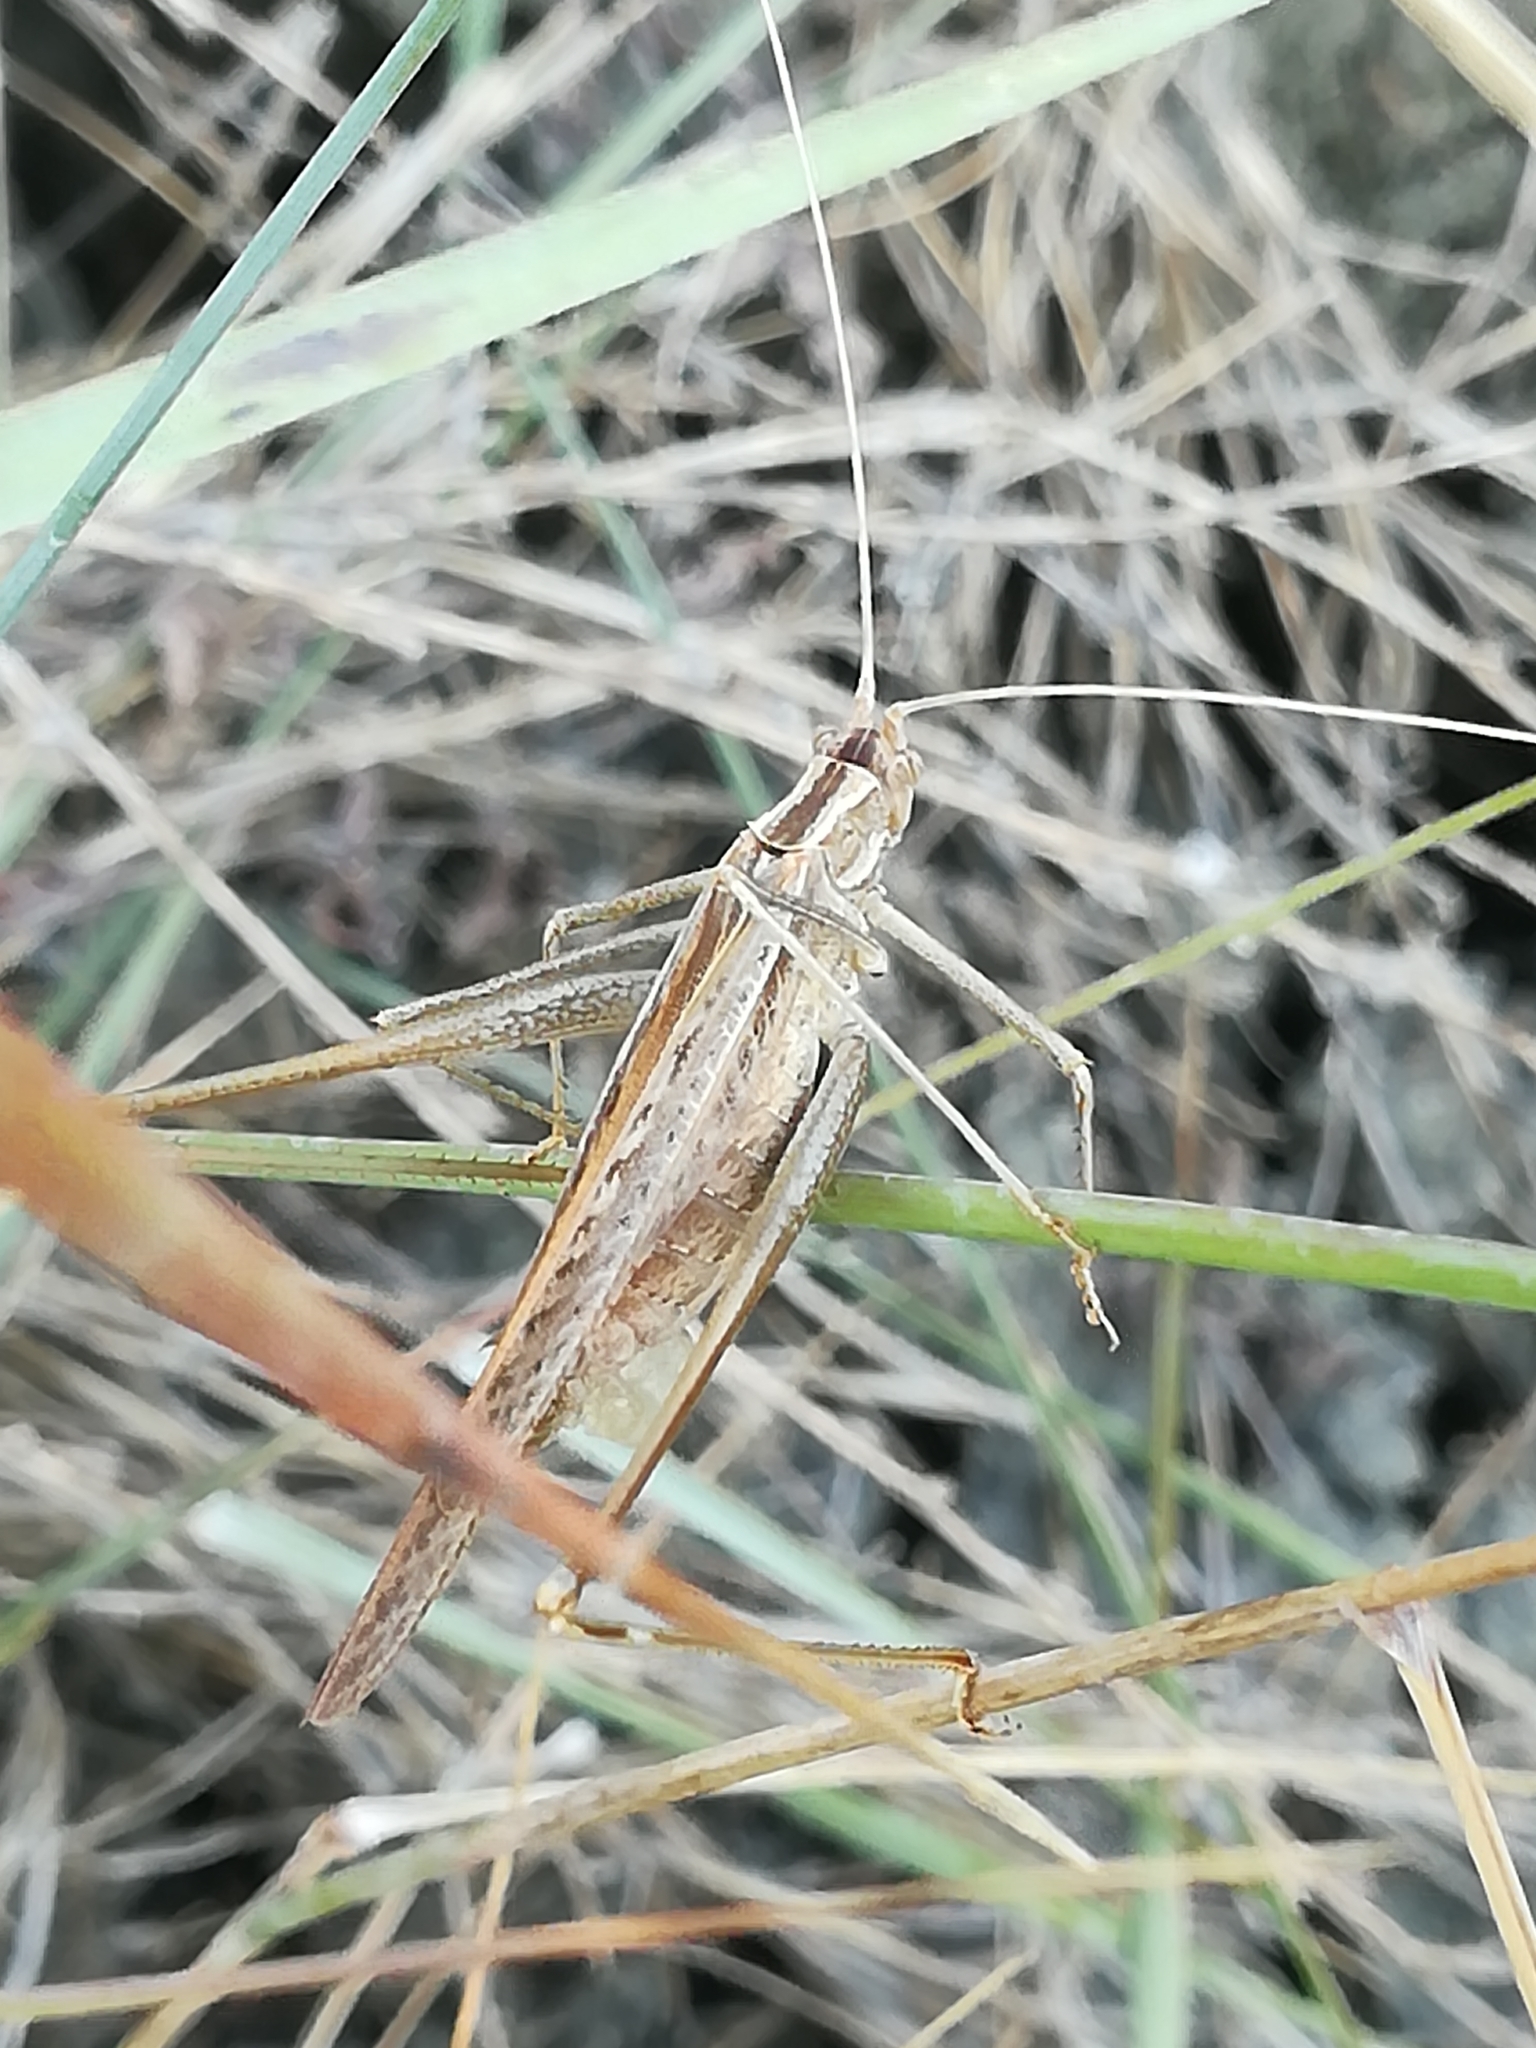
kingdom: Animalia
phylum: Arthropoda
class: Insecta
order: Orthoptera
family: Tettigoniidae
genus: Tylopsis
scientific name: Tylopsis lilifolia
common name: Lily bush-cricket
